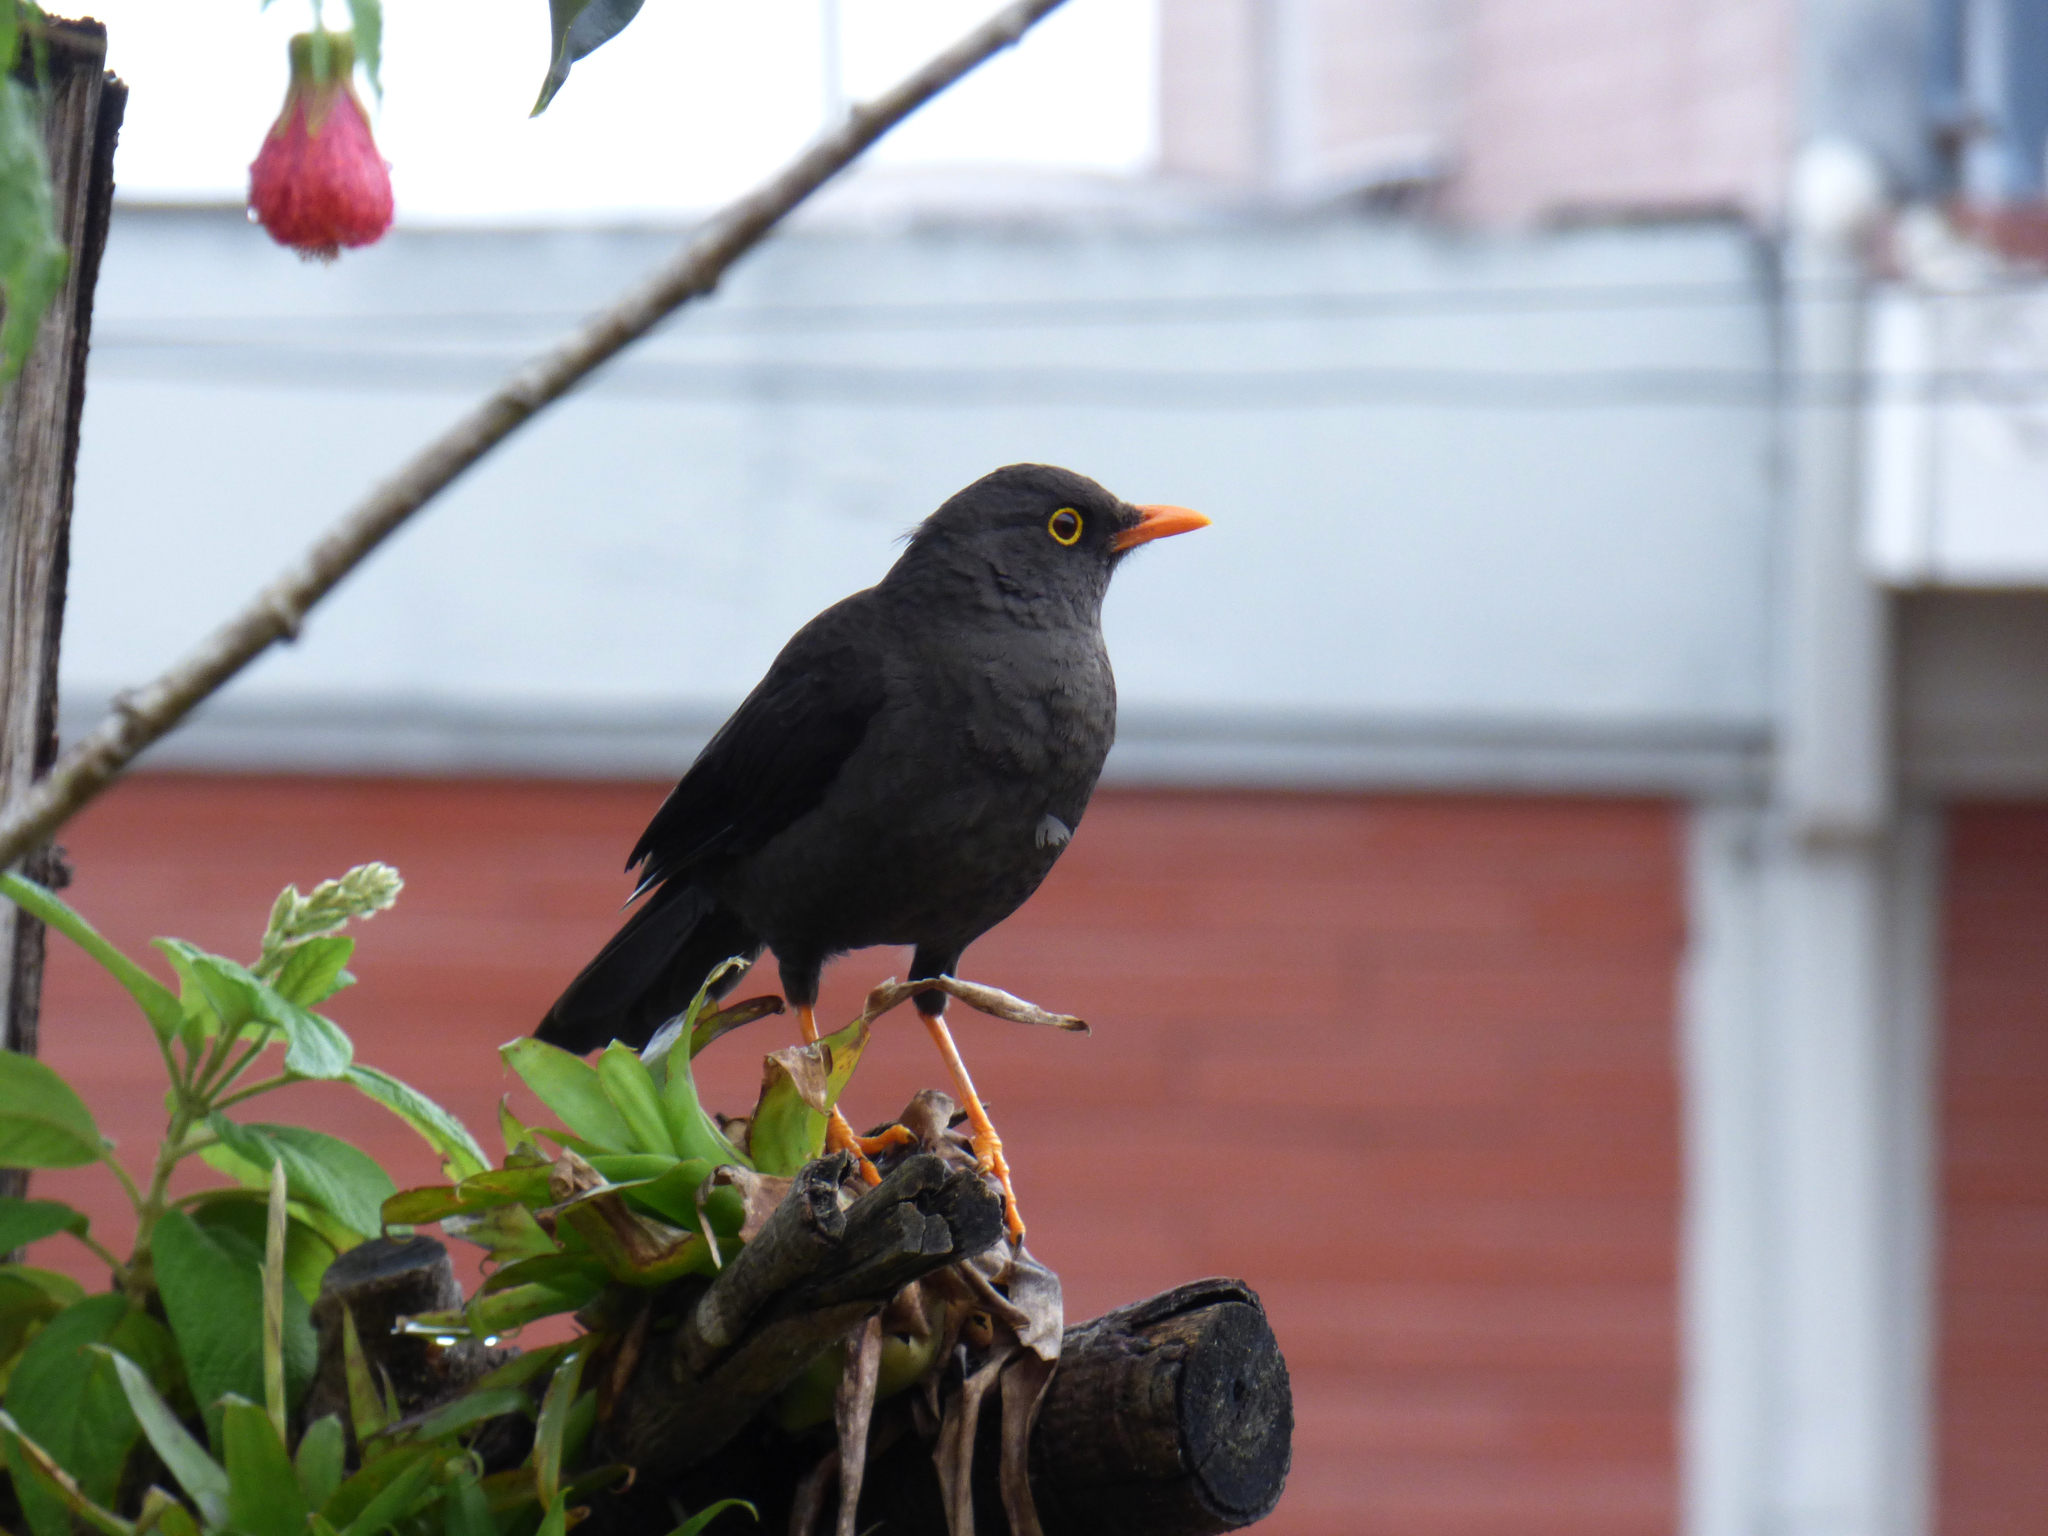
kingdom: Animalia
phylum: Chordata
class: Aves
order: Passeriformes
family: Turdidae
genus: Turdus
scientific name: Turdus fuscater
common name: Great thrush
